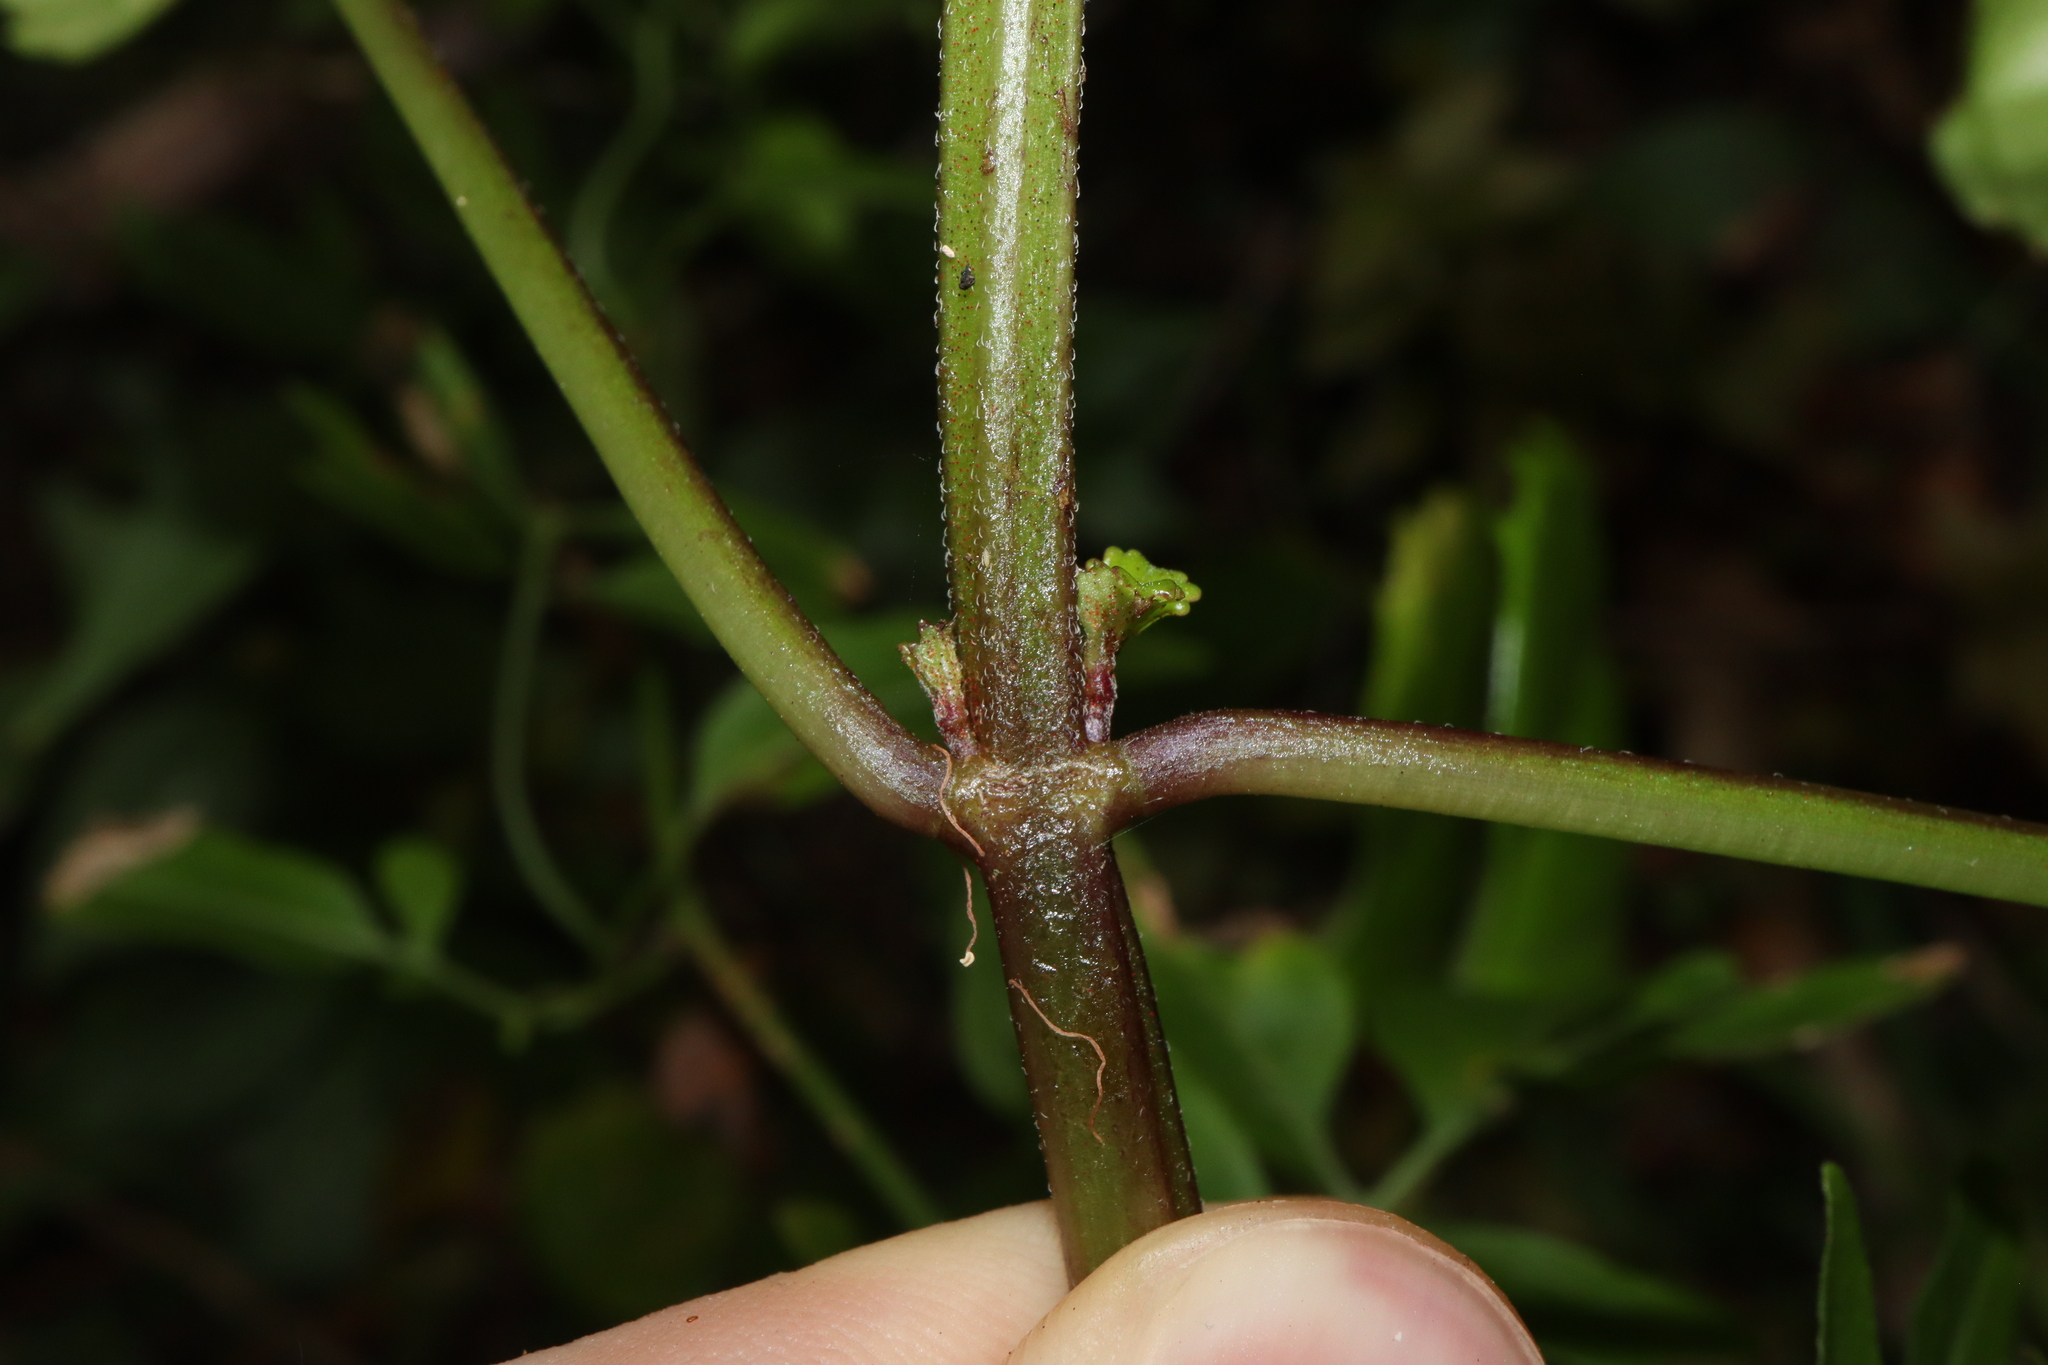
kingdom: Plantae
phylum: Tracheophyta
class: Magnoliopsida
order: Lamiales
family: Lamiaceae
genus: Plectranthus
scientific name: Plectranthus verticillatus
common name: Whorled plectranthus
